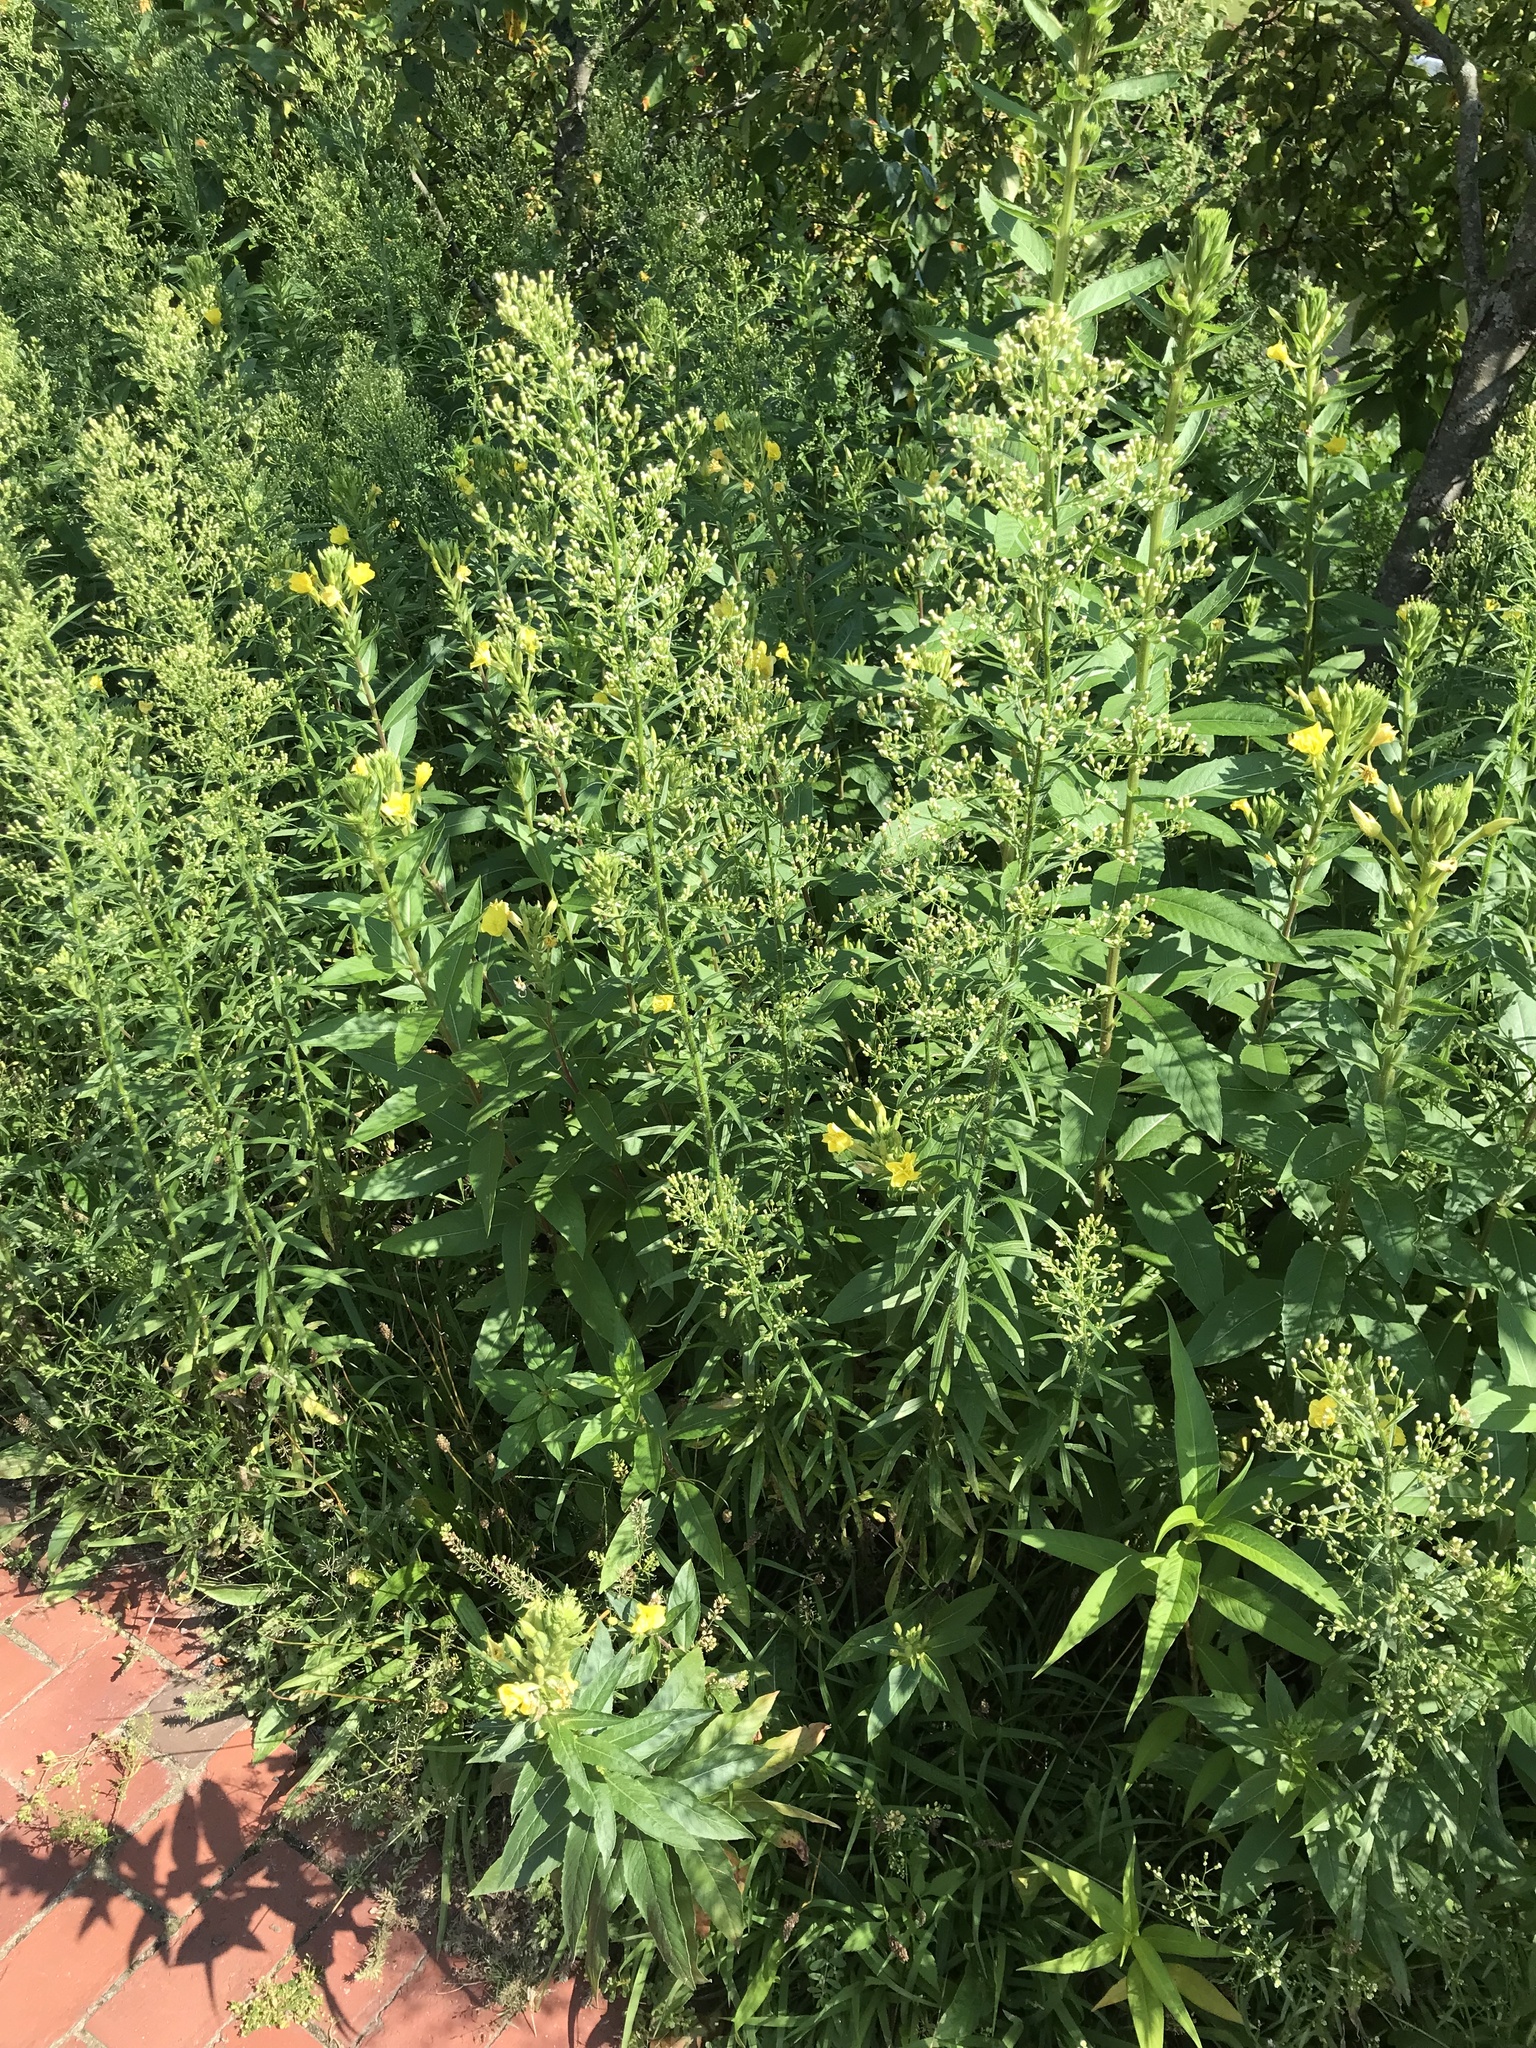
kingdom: Plantae
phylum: Tracheophyta
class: Magnoliopsida
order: Asterales
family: Asteraceae
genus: Erigeron
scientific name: Erigeron canadensis
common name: Canadian fleabane
